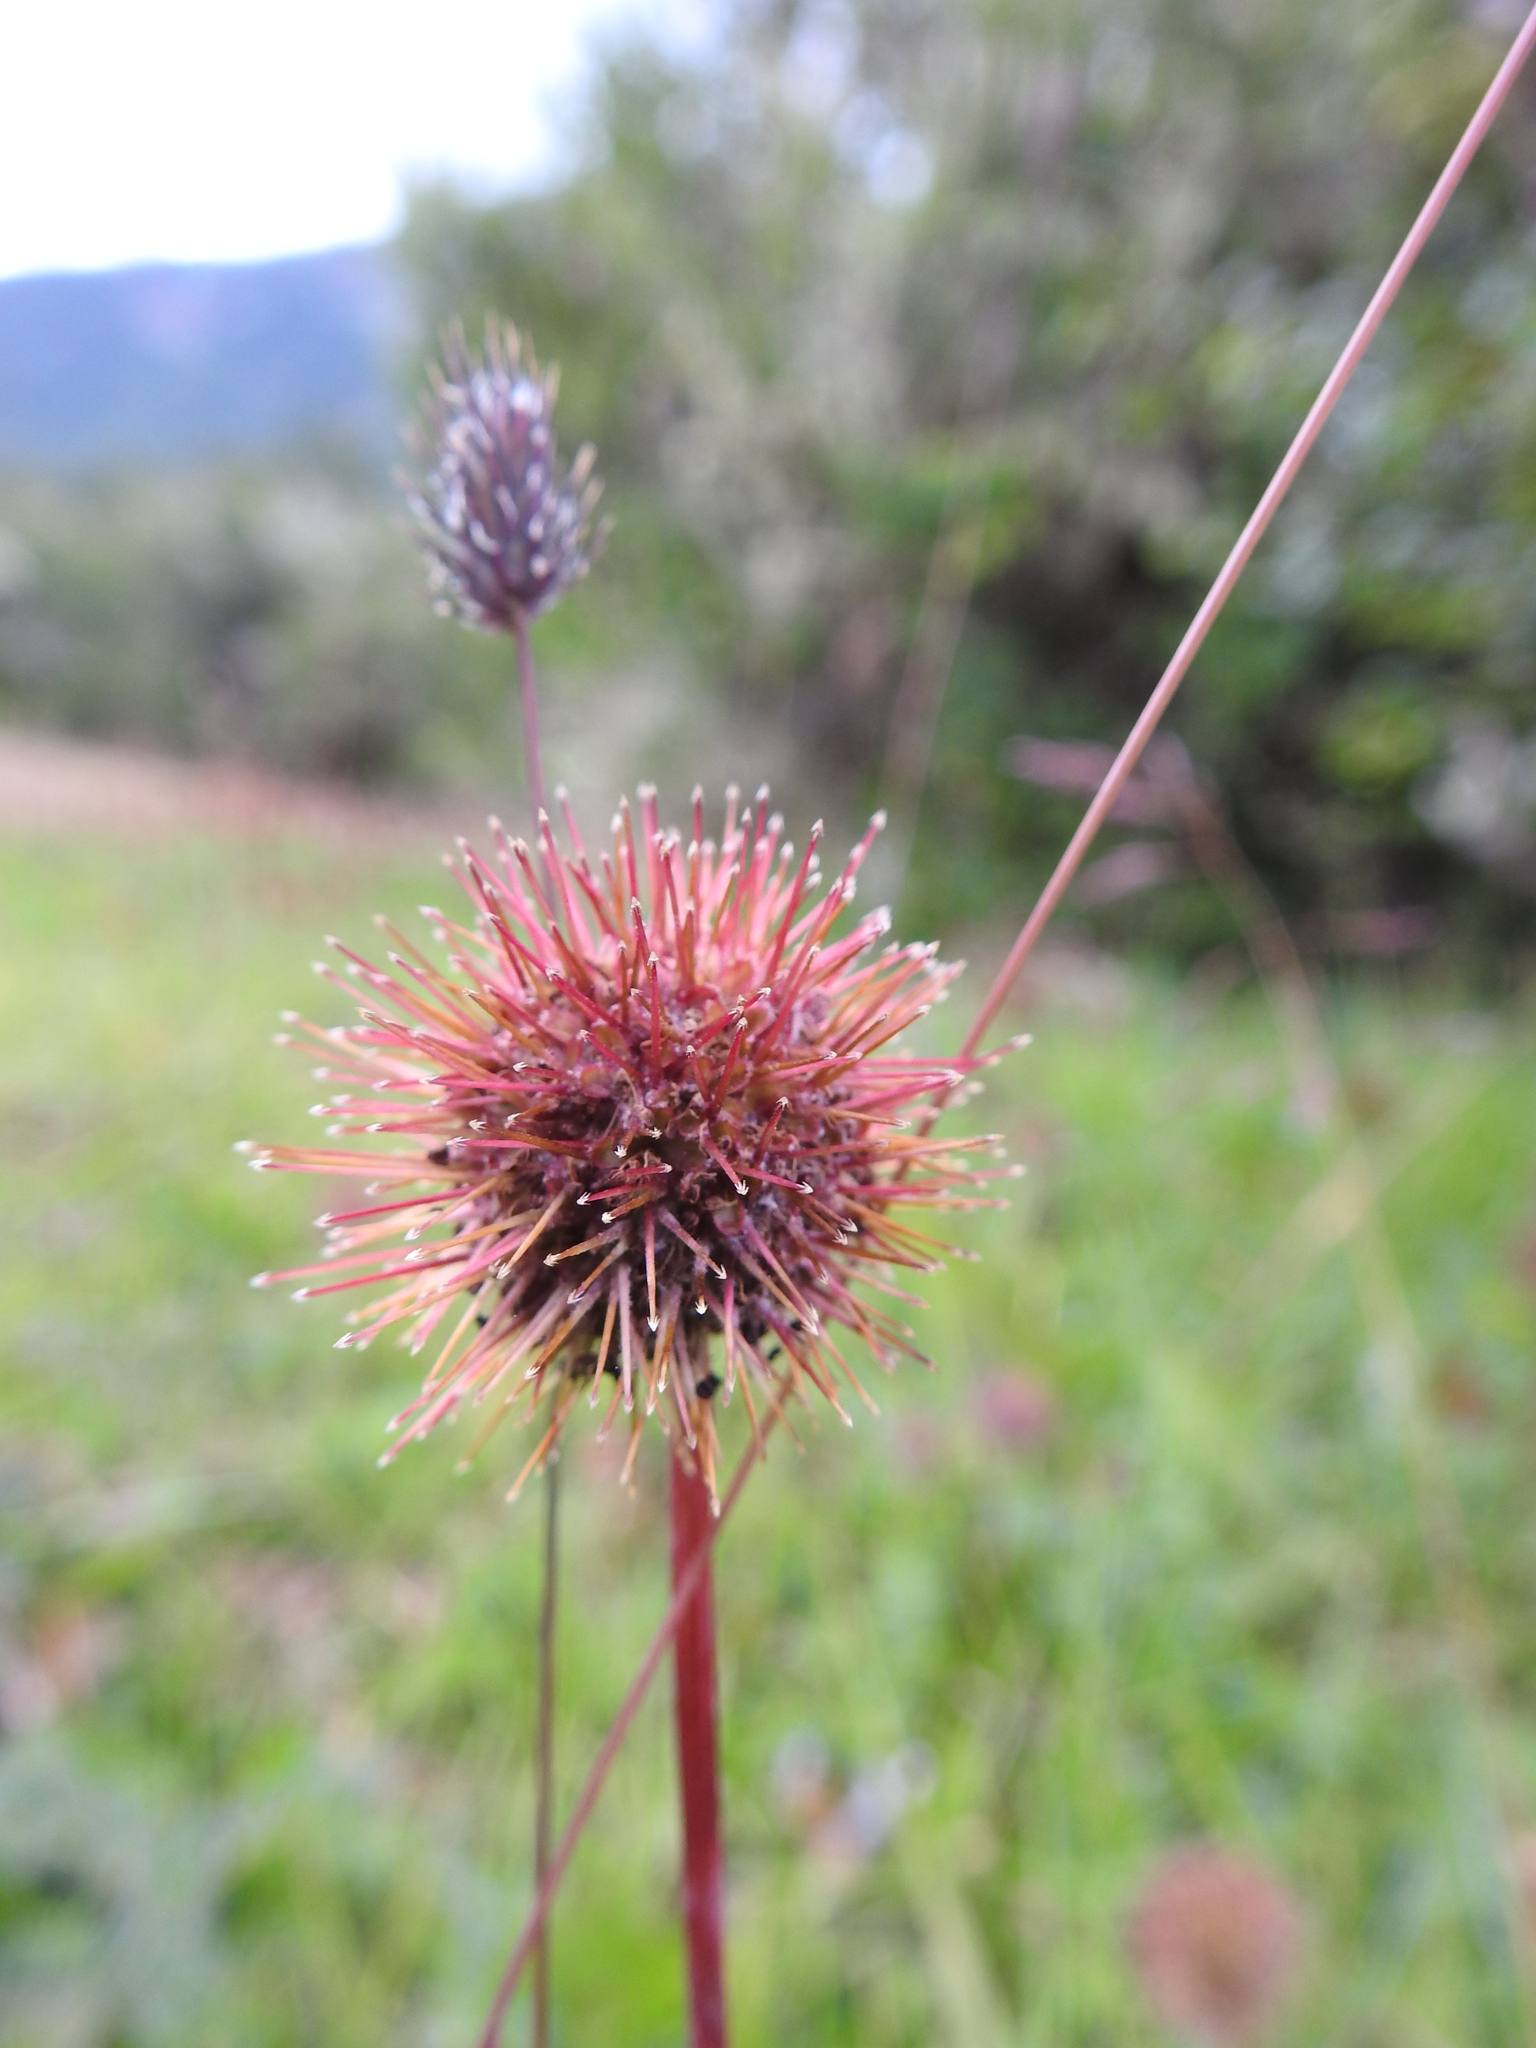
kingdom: Plantae
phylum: Tracheophyta
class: Magnoliopsida
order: Rosales
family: Rosaceae
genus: Acaena
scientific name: Acaena magellanica
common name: New zealand burr
